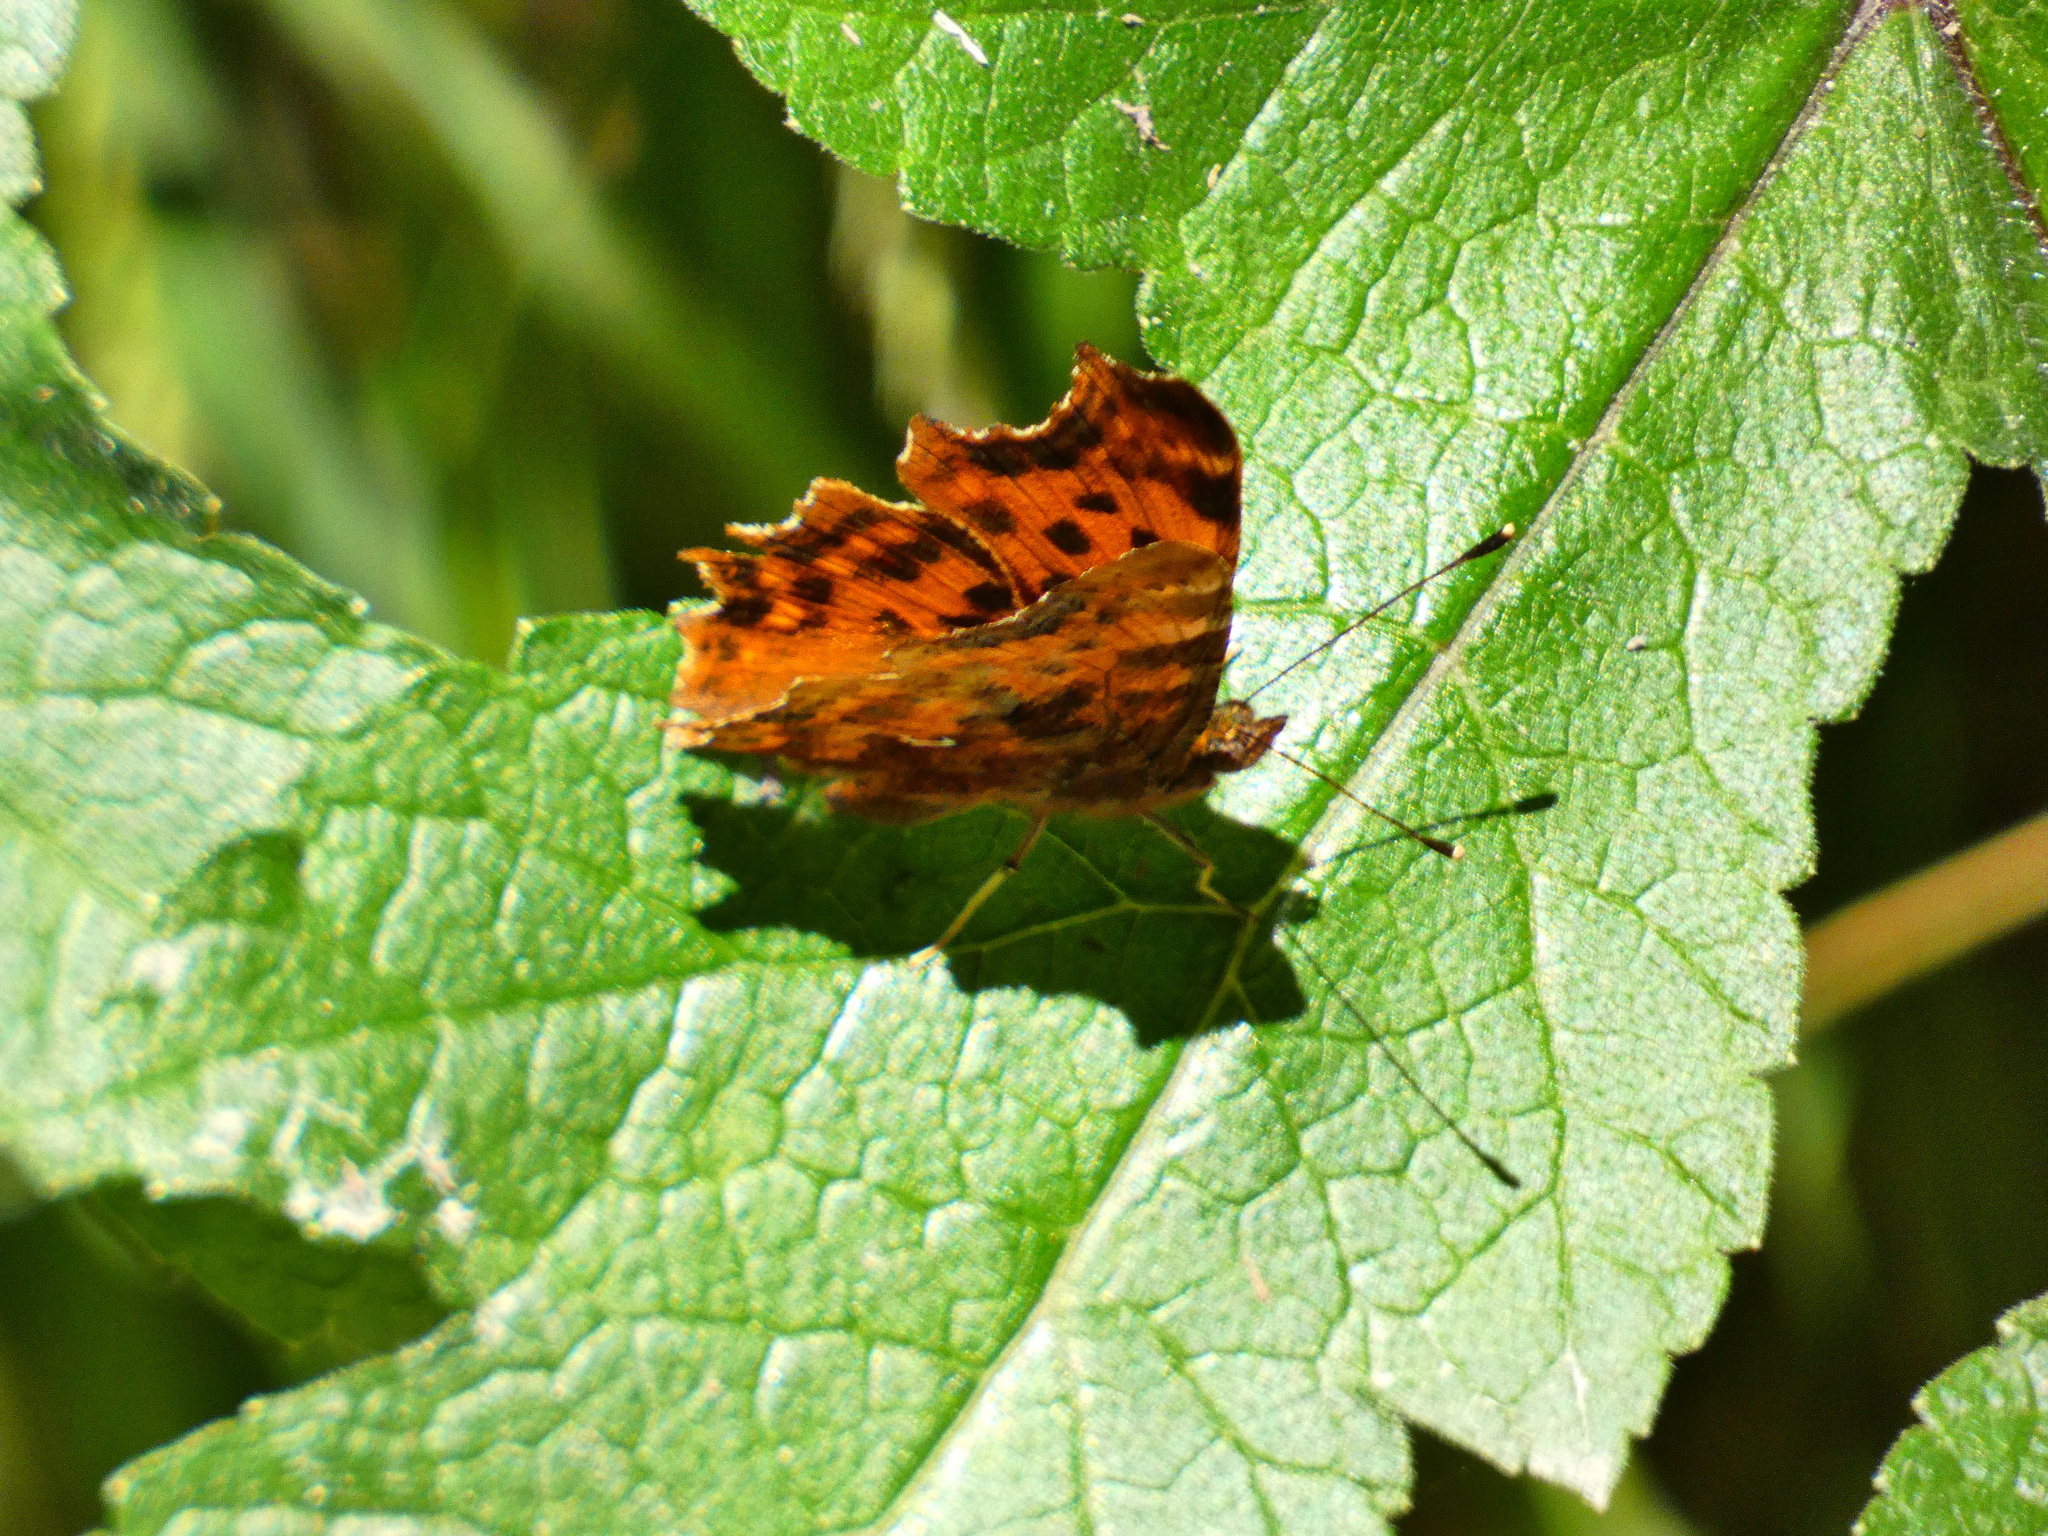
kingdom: Animalia
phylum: Arthropoda
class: Insecta
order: Lepidoptera
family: Nymphalidae
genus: Polygonia
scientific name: Polygonia c-album
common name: Comma
